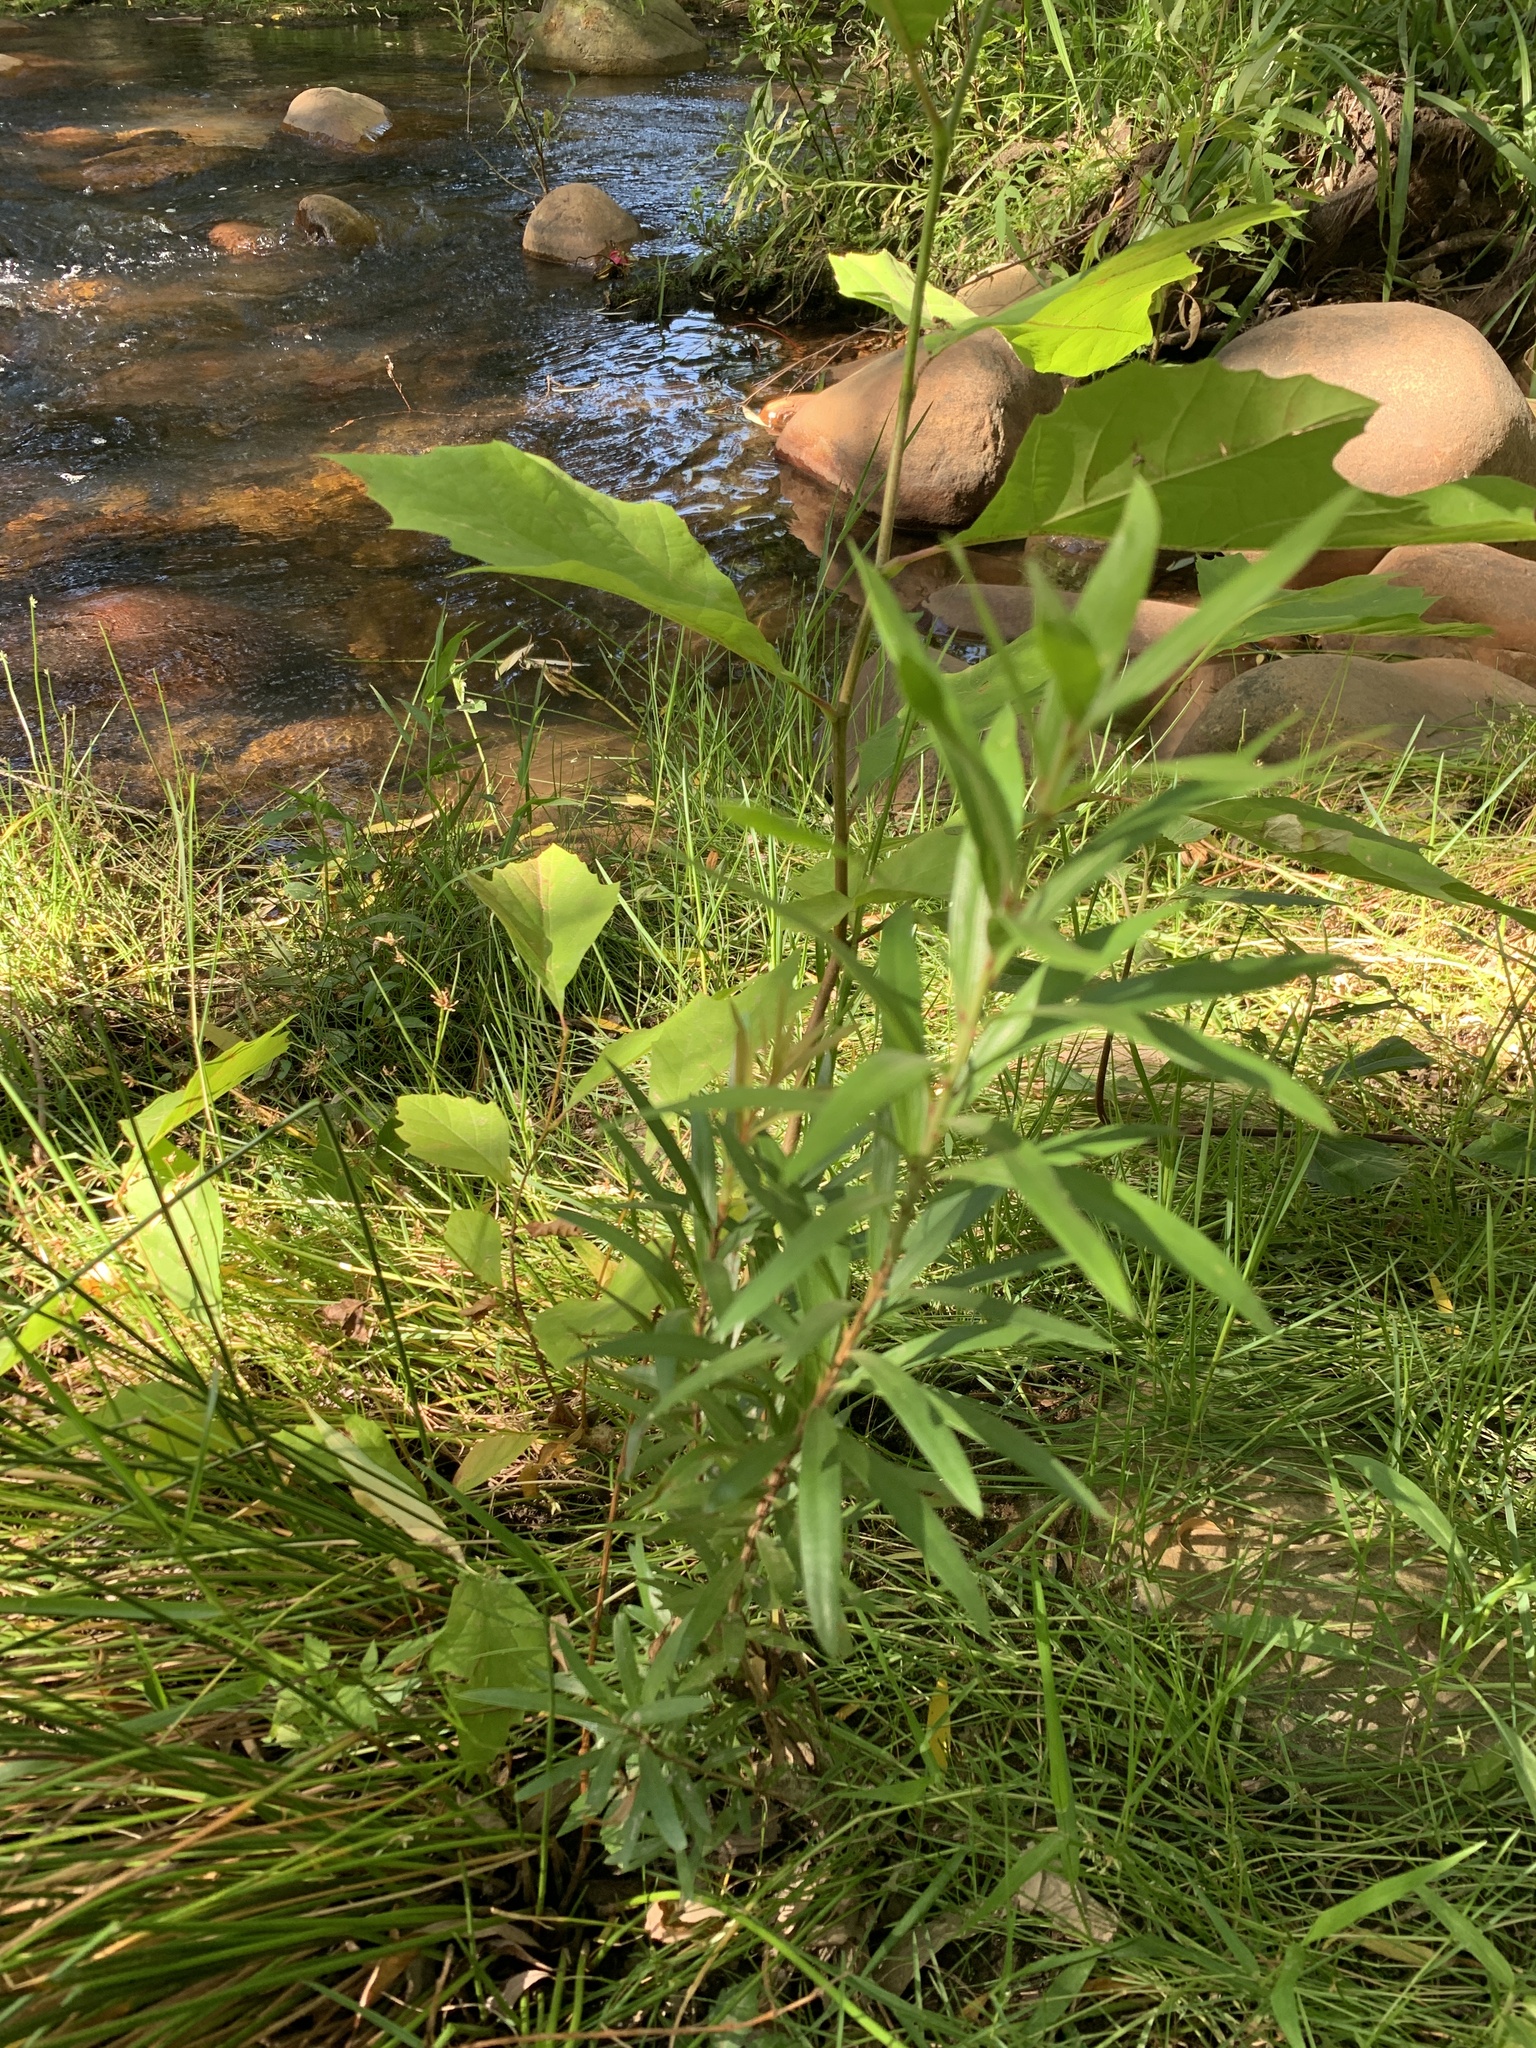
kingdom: Plantae
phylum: Tracheophyta
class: Magnoliopsida
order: Proteales
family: Platanaceae
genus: Platanus
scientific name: Platanus hispanica
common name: London plane
